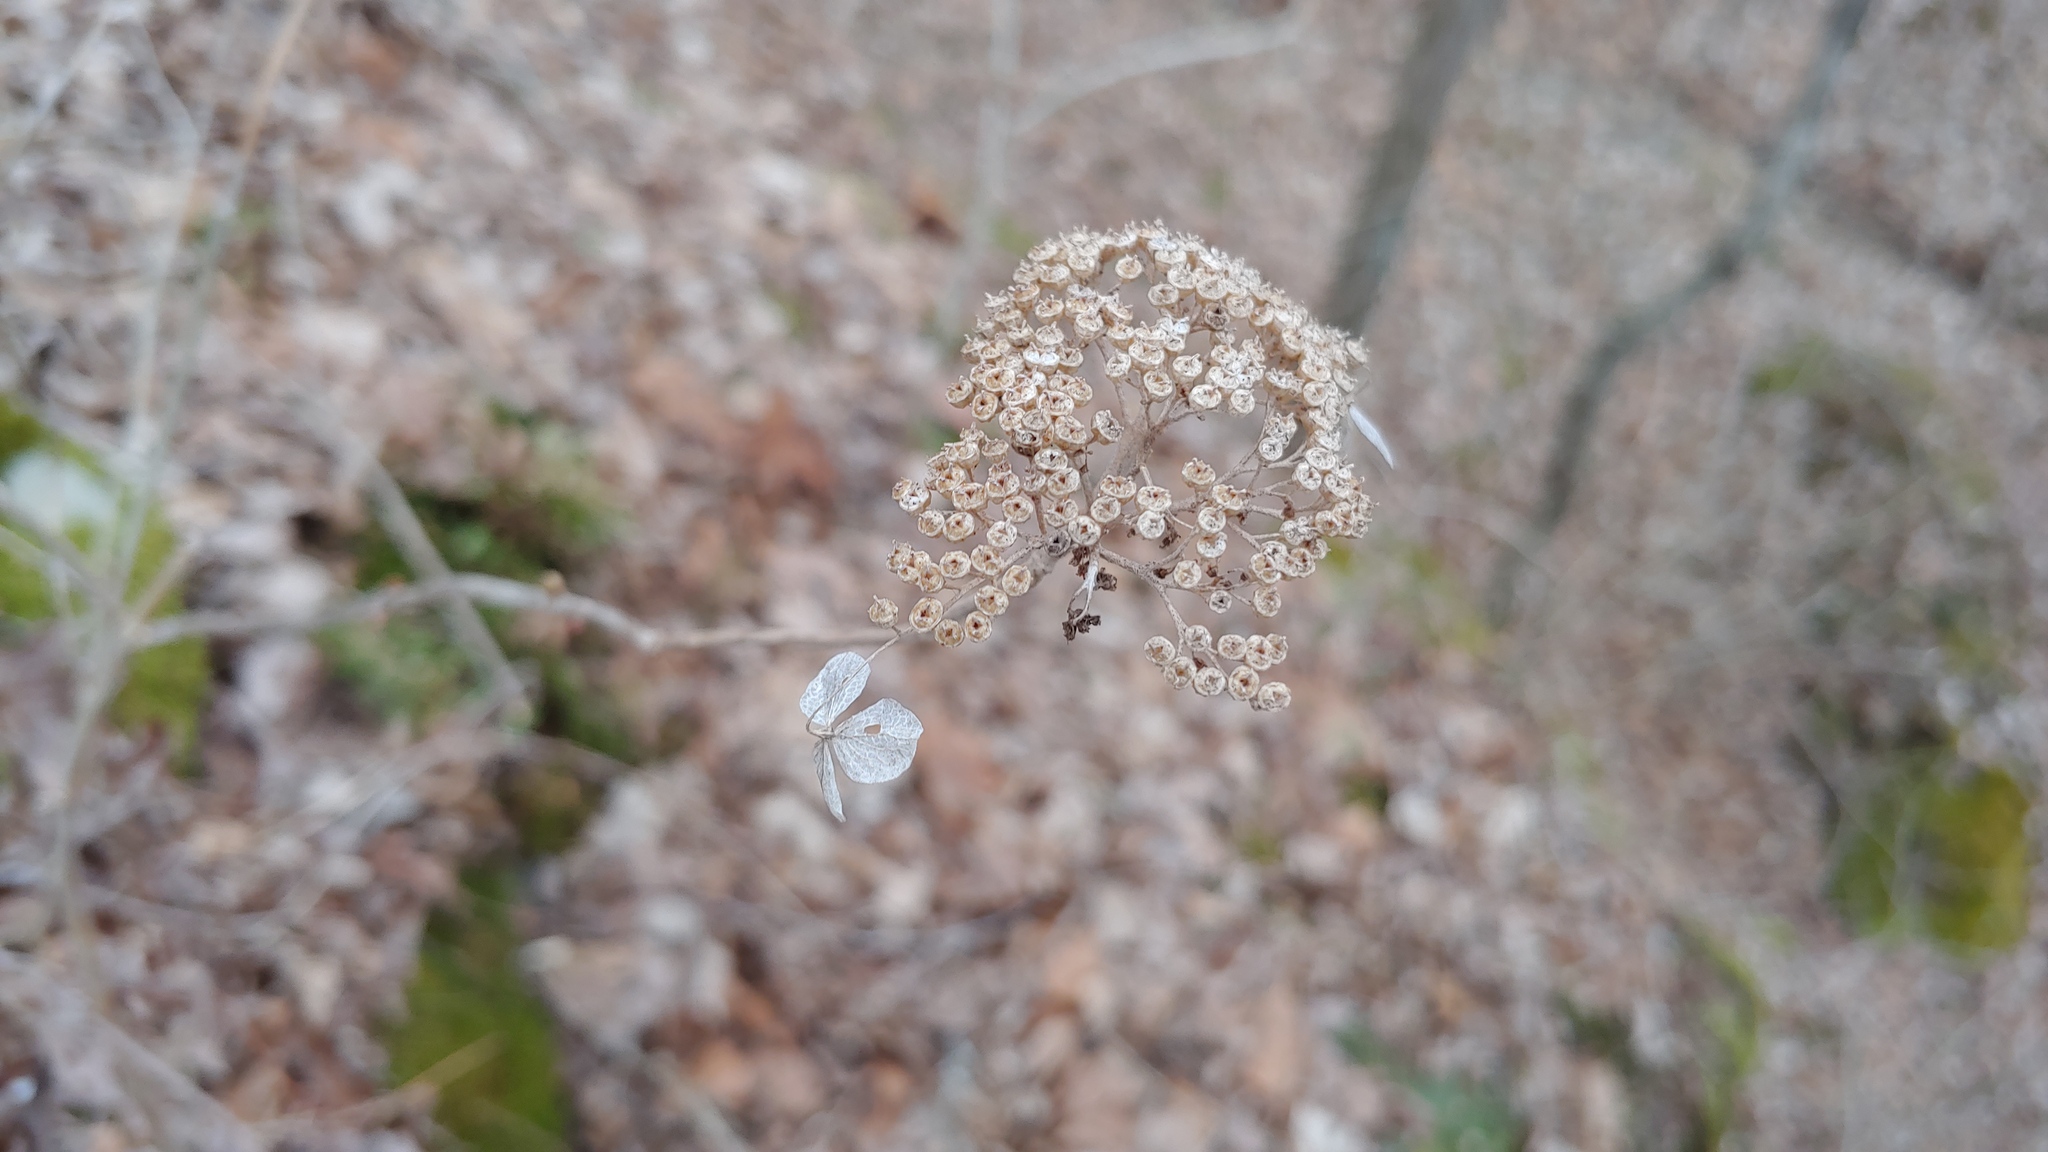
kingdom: Plantae
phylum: Tracheophyta
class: Magnoliopsida
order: Cornales
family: Hydrangeaceae
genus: Hydrangea
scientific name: Hydrangea arborescens
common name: Sevenbark
